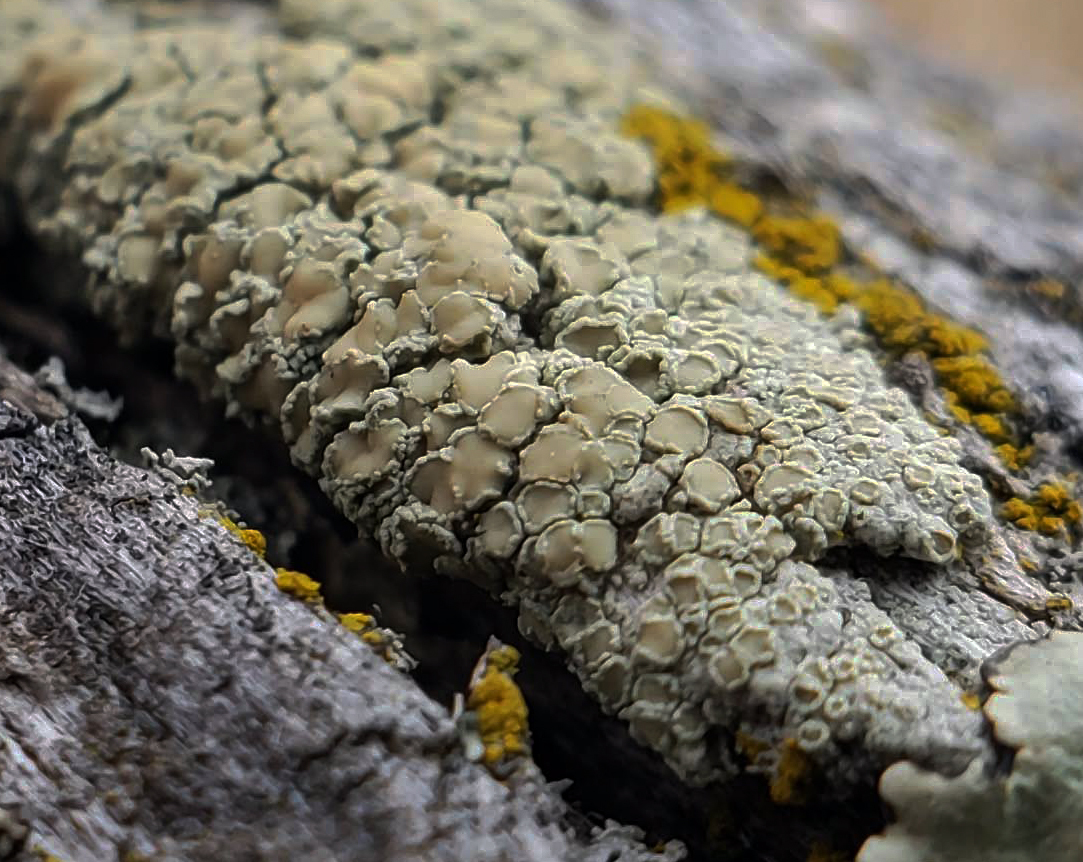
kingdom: Fungi
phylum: Ascomycota
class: Lecanoromycetes
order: Lecanorales
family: Lecanoraceae
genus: Lecanora
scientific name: Lecanora strobilina
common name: Mealy rim-lichen
